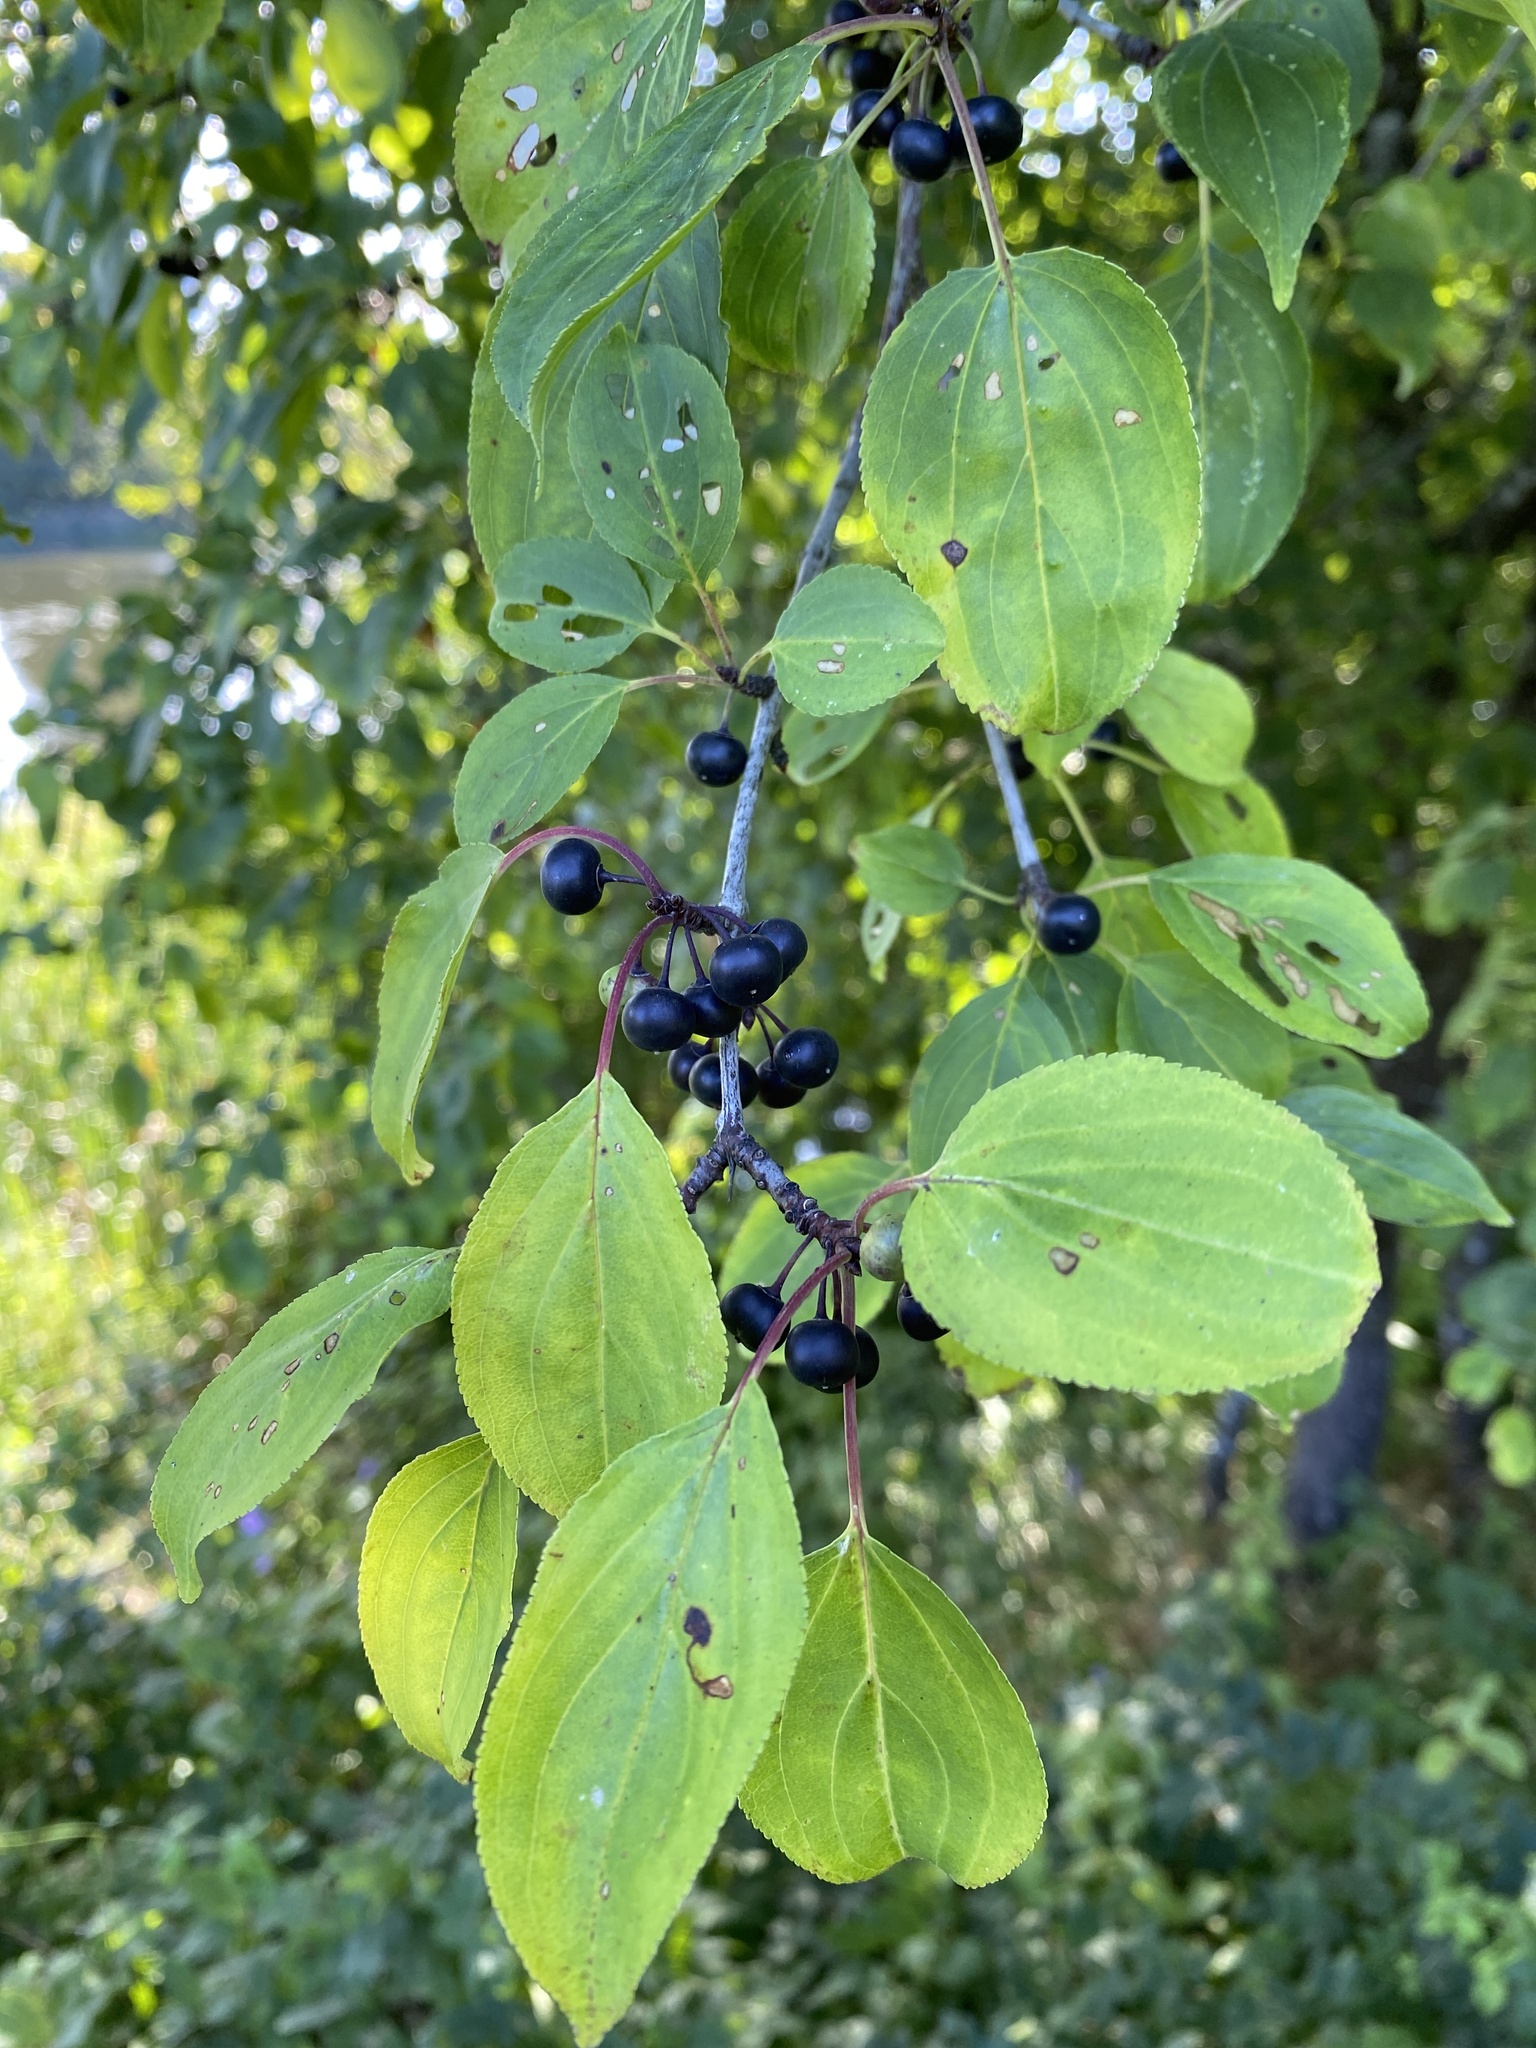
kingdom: Plantae
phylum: Tracheophyta
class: Magnoliopsida
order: Rosales
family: Rhamnaceae
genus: Rhamnus
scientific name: Rhamnus cathartica
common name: Common buckthorn
